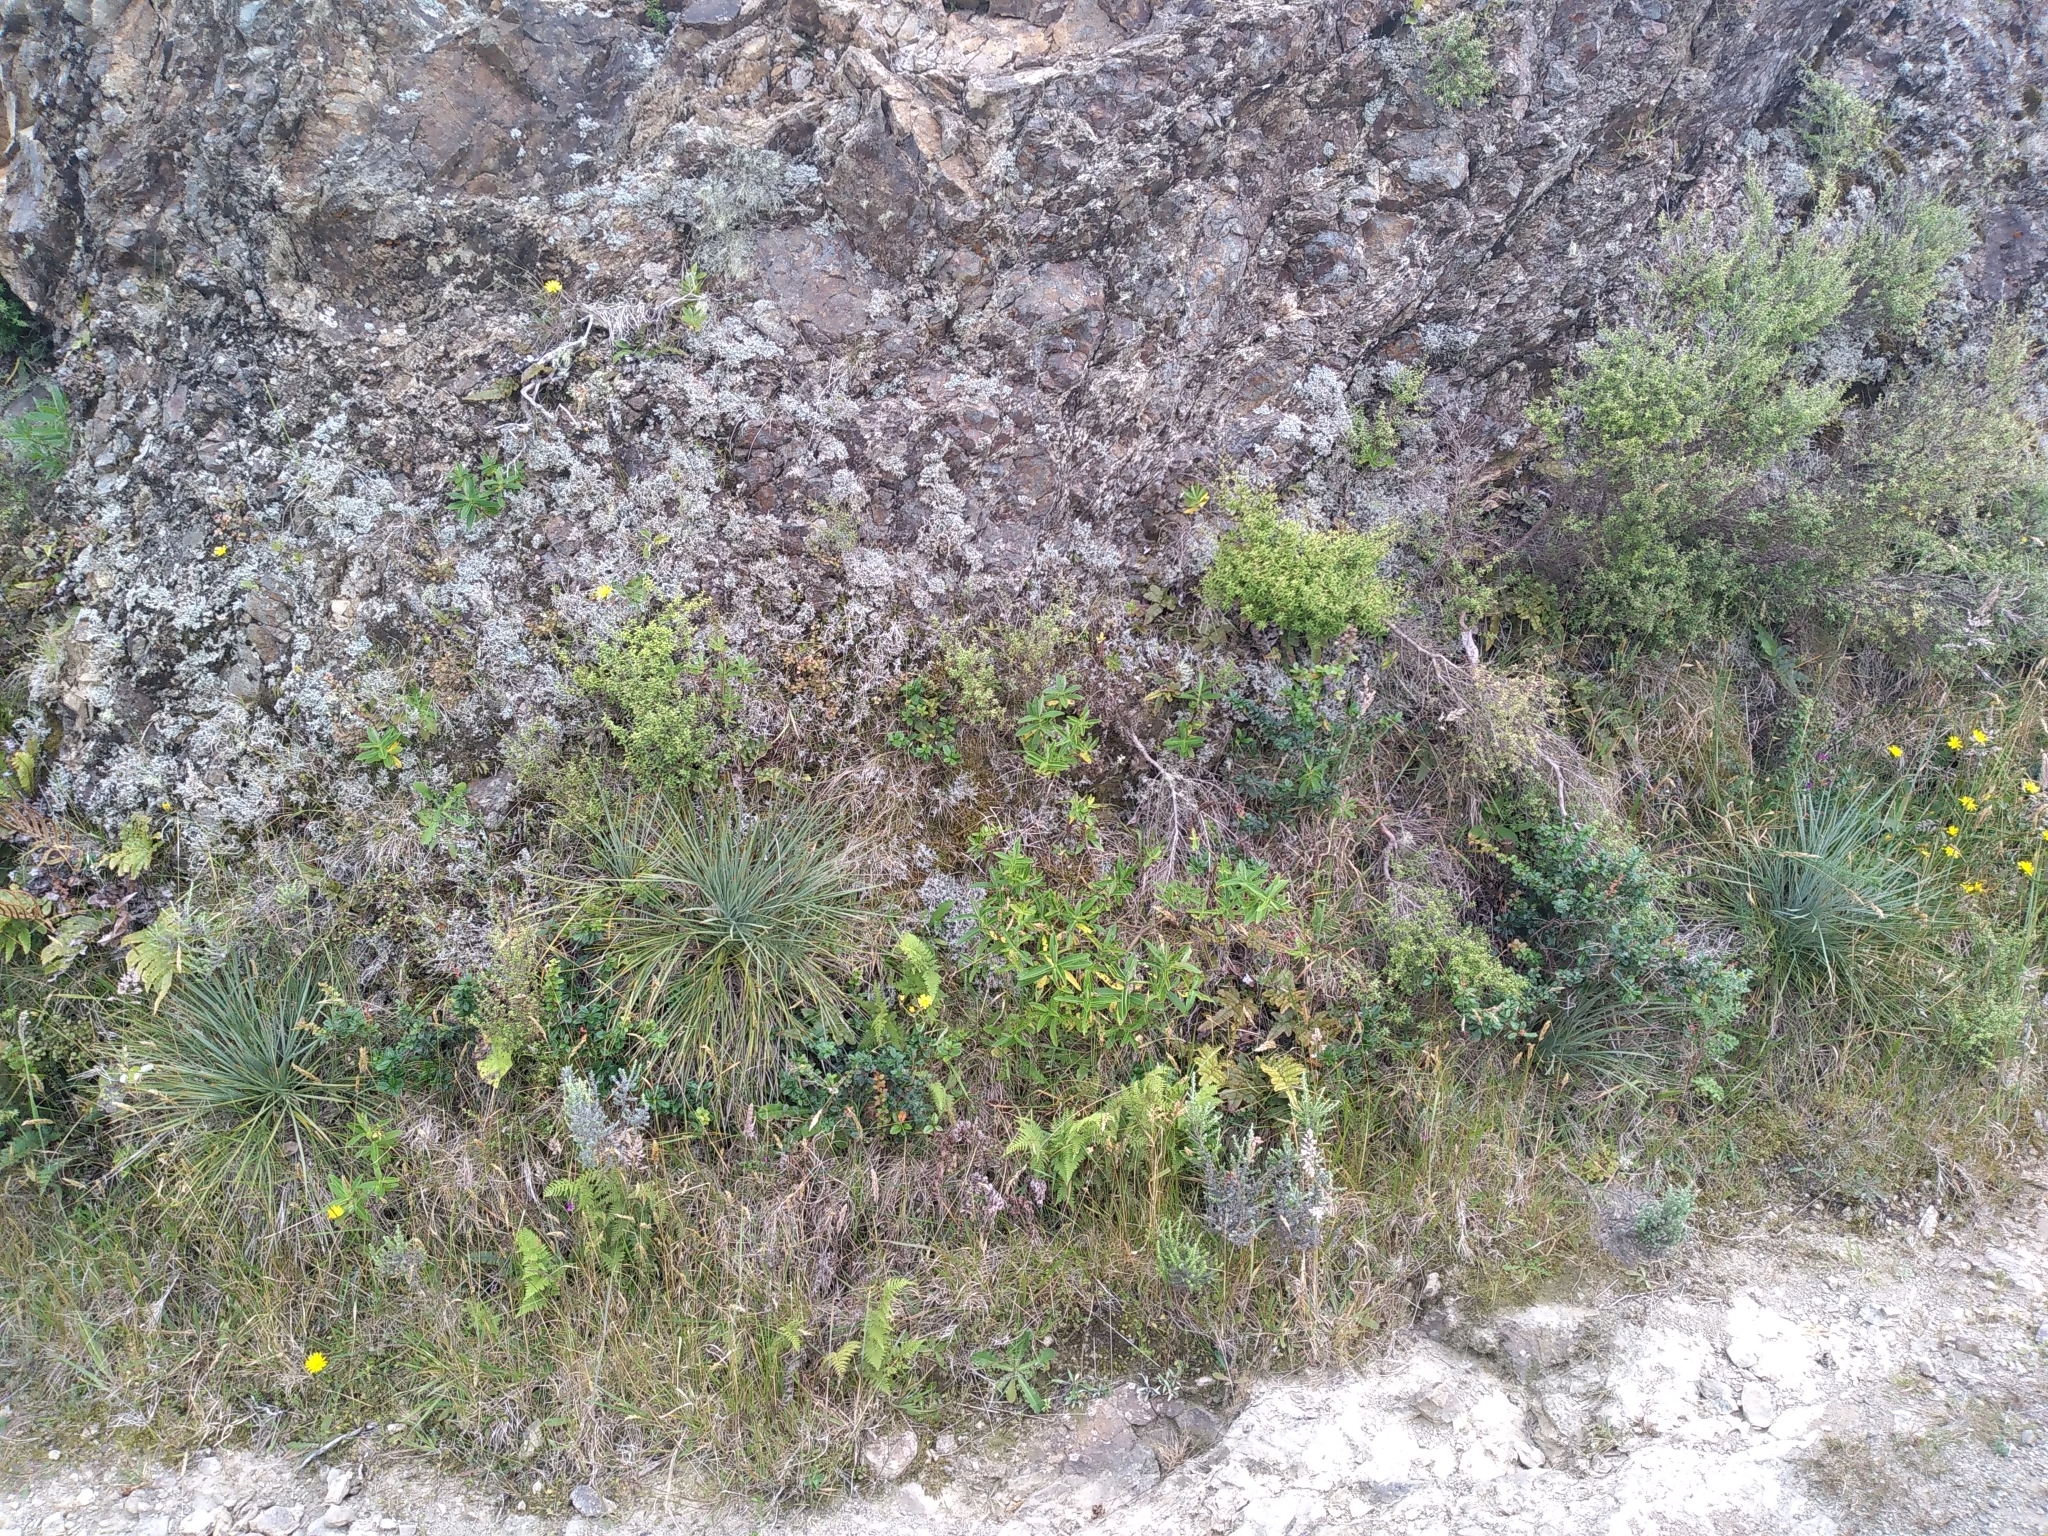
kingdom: Plantae
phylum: Tracheophyta
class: Magnoliopsida
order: Apiales
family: Apiaceae
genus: Aciphylla
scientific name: Aciphylla squarrosa
